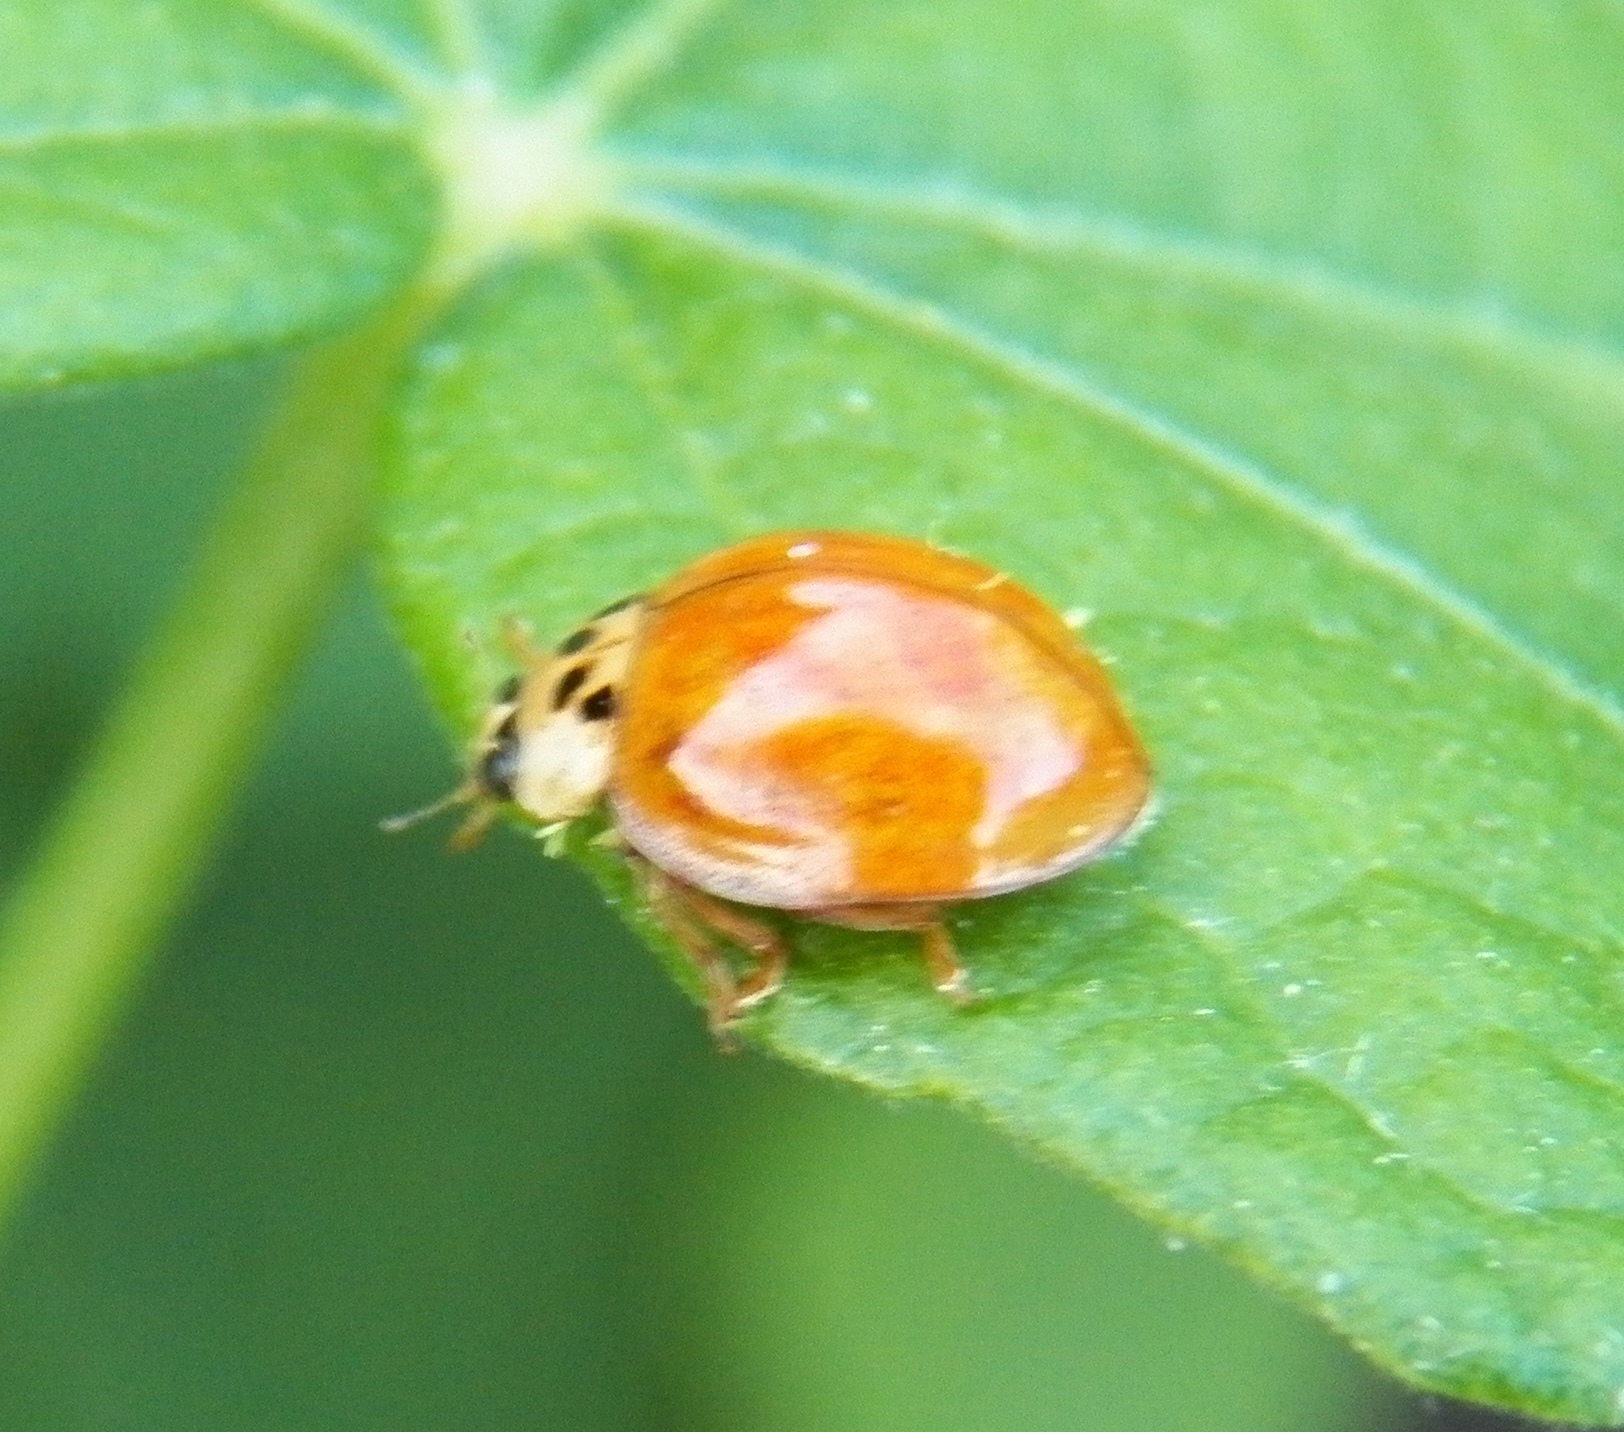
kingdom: Animalia
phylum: Arthropoda
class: Insecta
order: Coleoptera
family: Coccinellidae
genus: Harmonia
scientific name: Harmonia axyridis
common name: Harlequin ladybird
